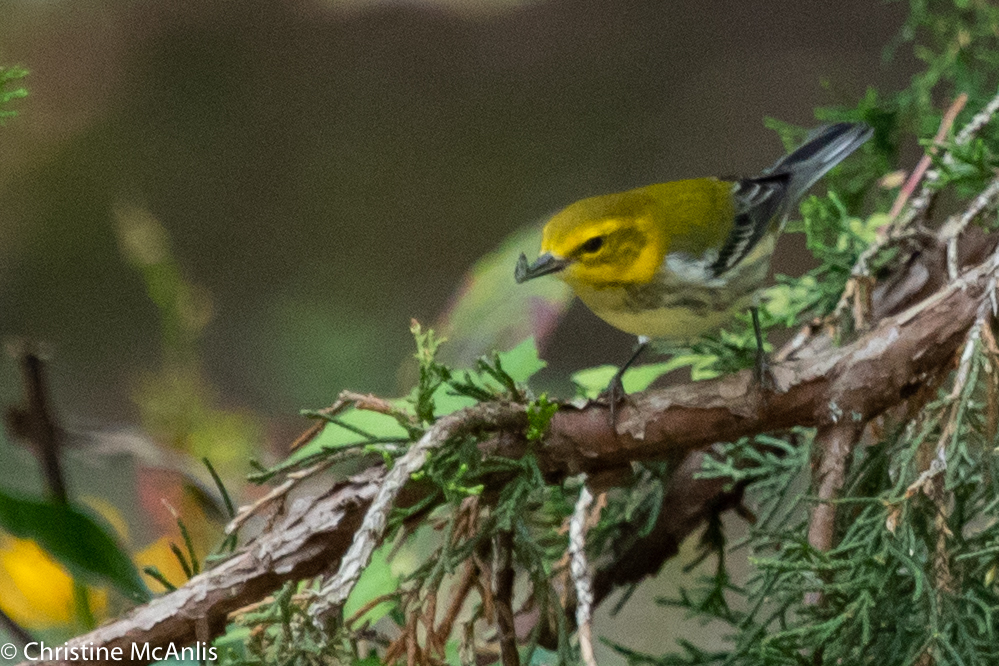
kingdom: Animalia
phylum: Chordata
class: Aves
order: Passeriformes
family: Parulidae
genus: Setophaga
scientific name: Setophaga virens
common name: Black-throated green warbler
